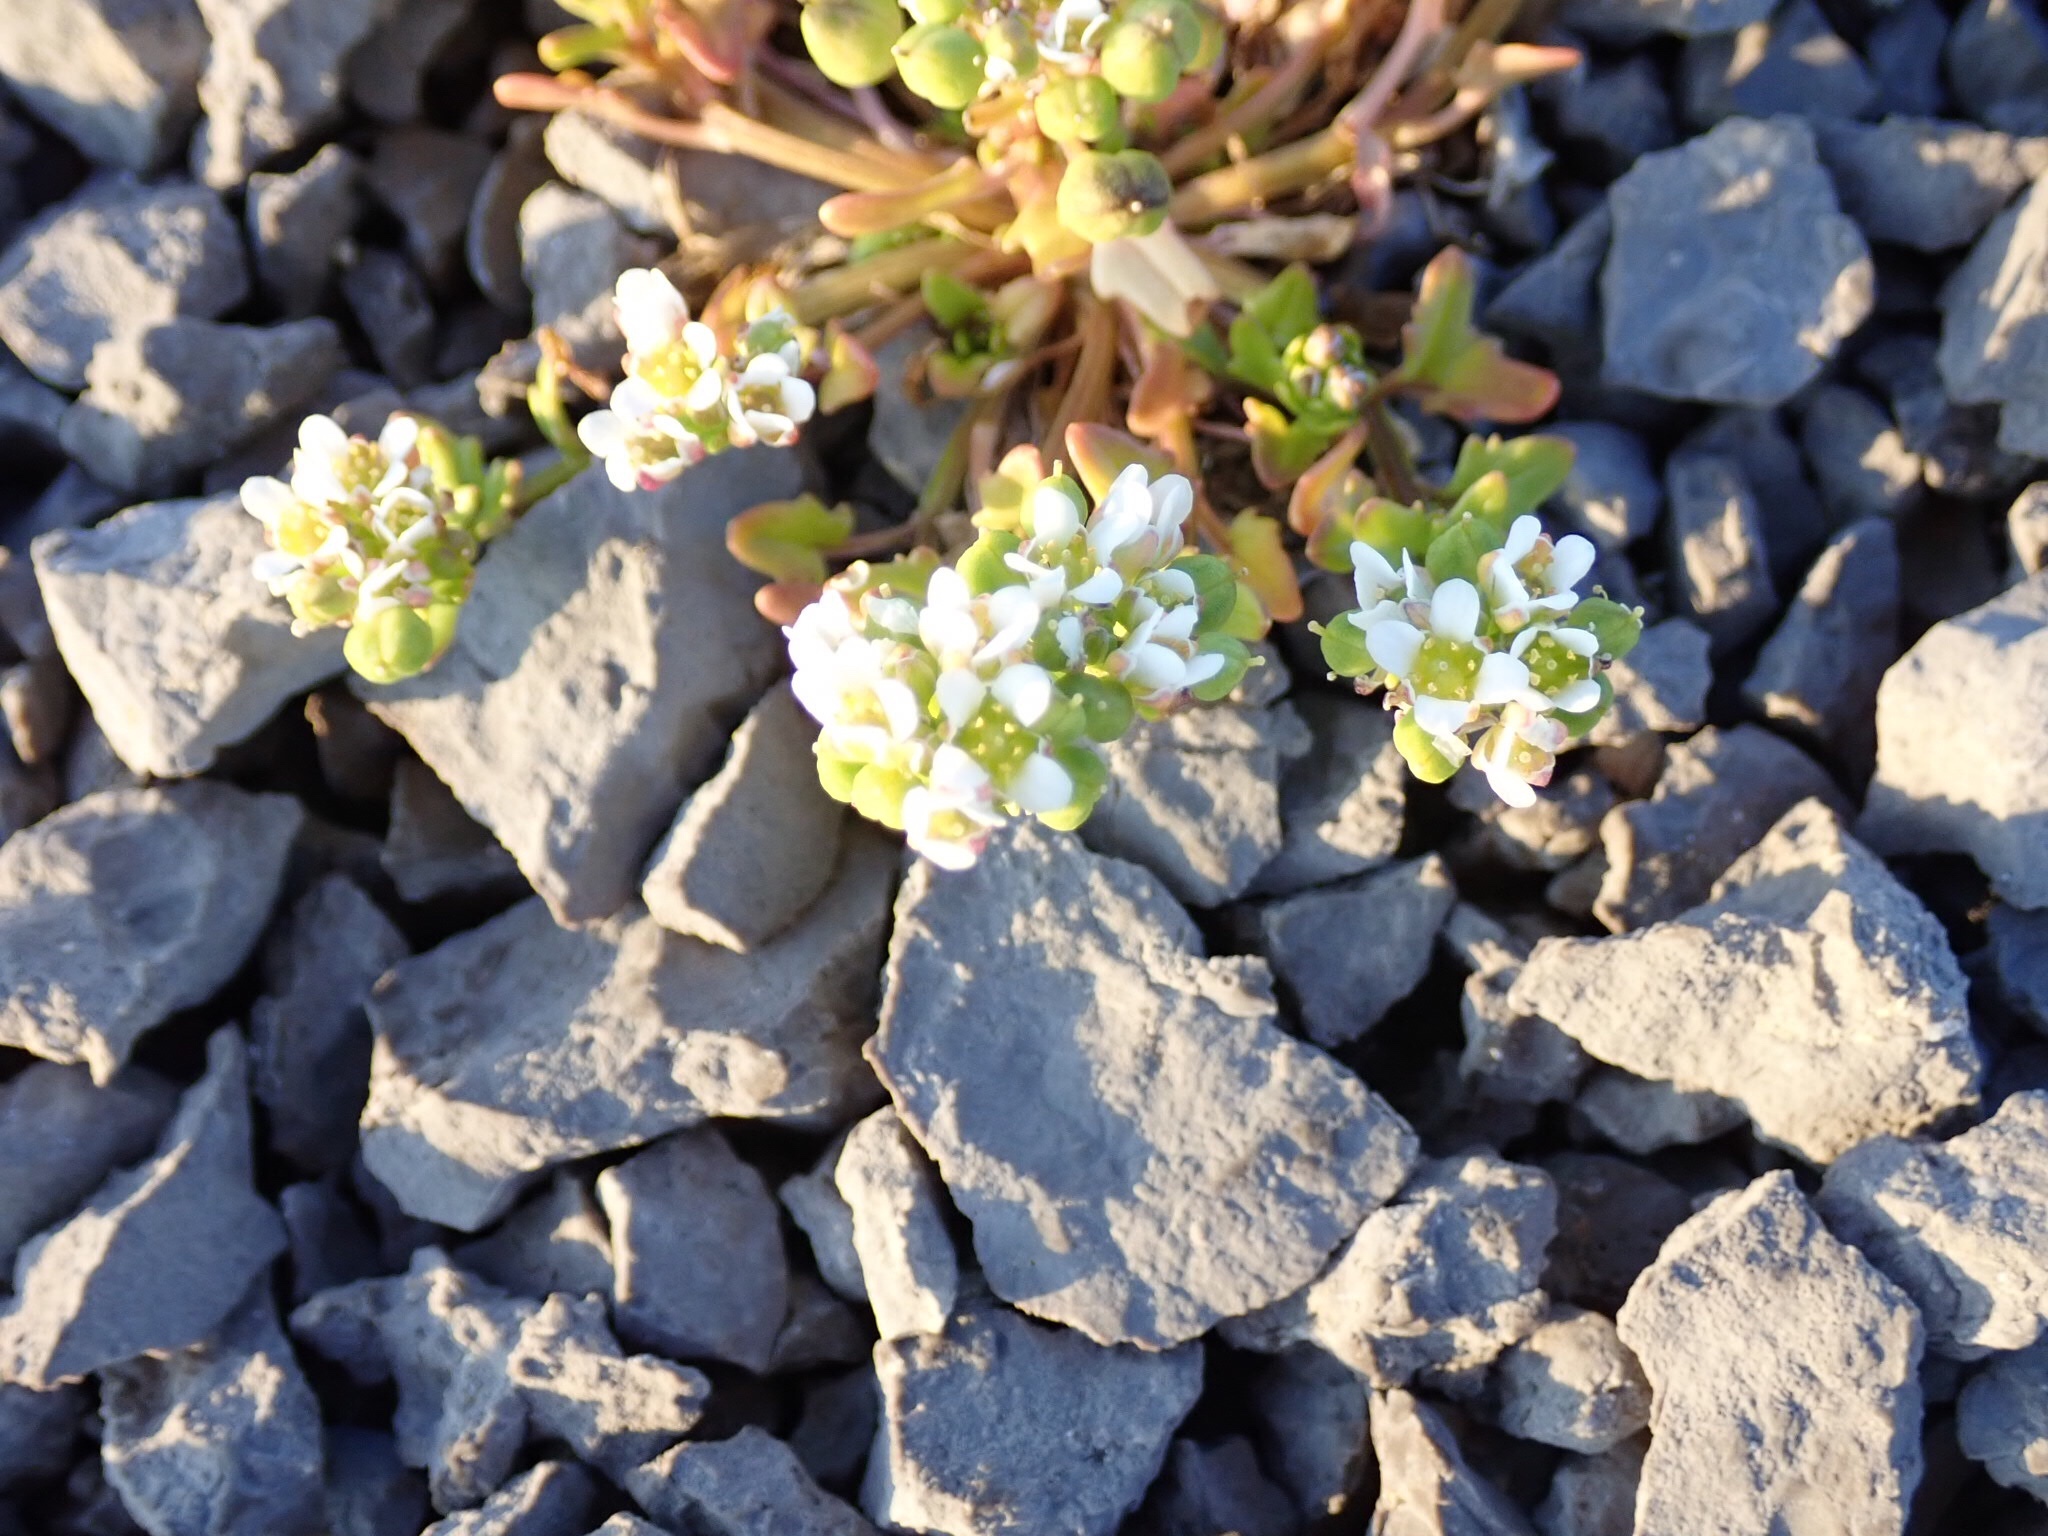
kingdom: Plantae
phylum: Tracheophyta
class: Magnoliopsida
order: Brassicales
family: Brassicaceae
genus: Cochlearia
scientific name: Cochlearia tridactylites
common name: Limestone scurvygrass
